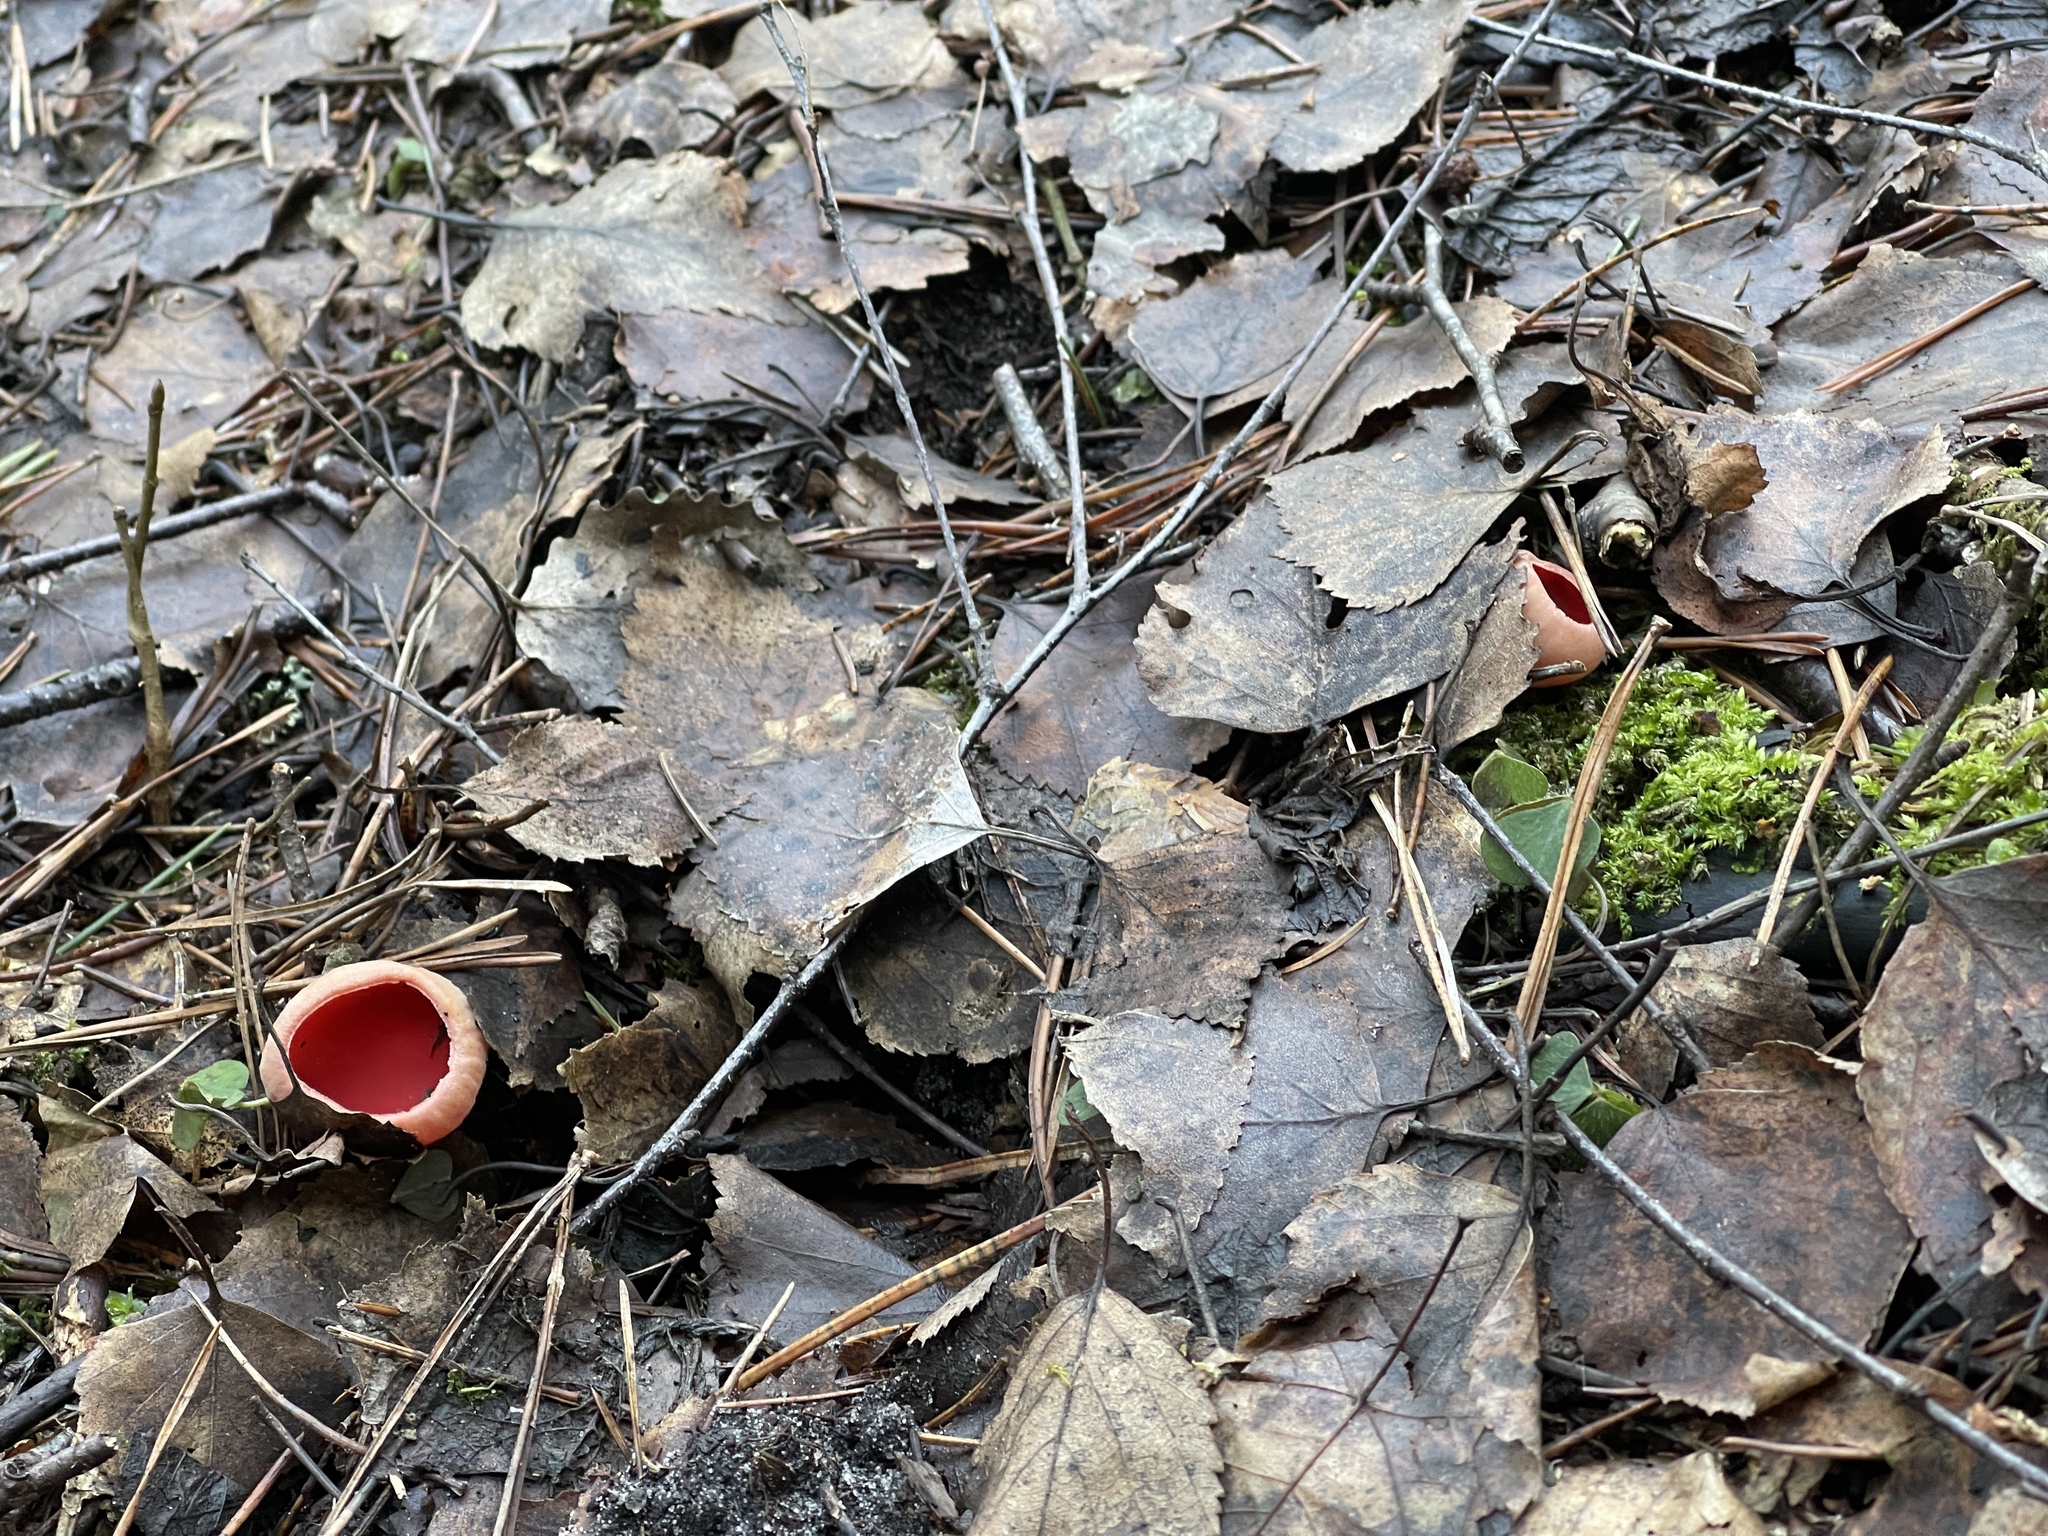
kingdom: Fungi
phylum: Ascomycota
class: Pezizomycetes
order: Pezizales
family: Sarcoscyphaceae
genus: Sarcoscypha
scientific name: Sarcoscypha
